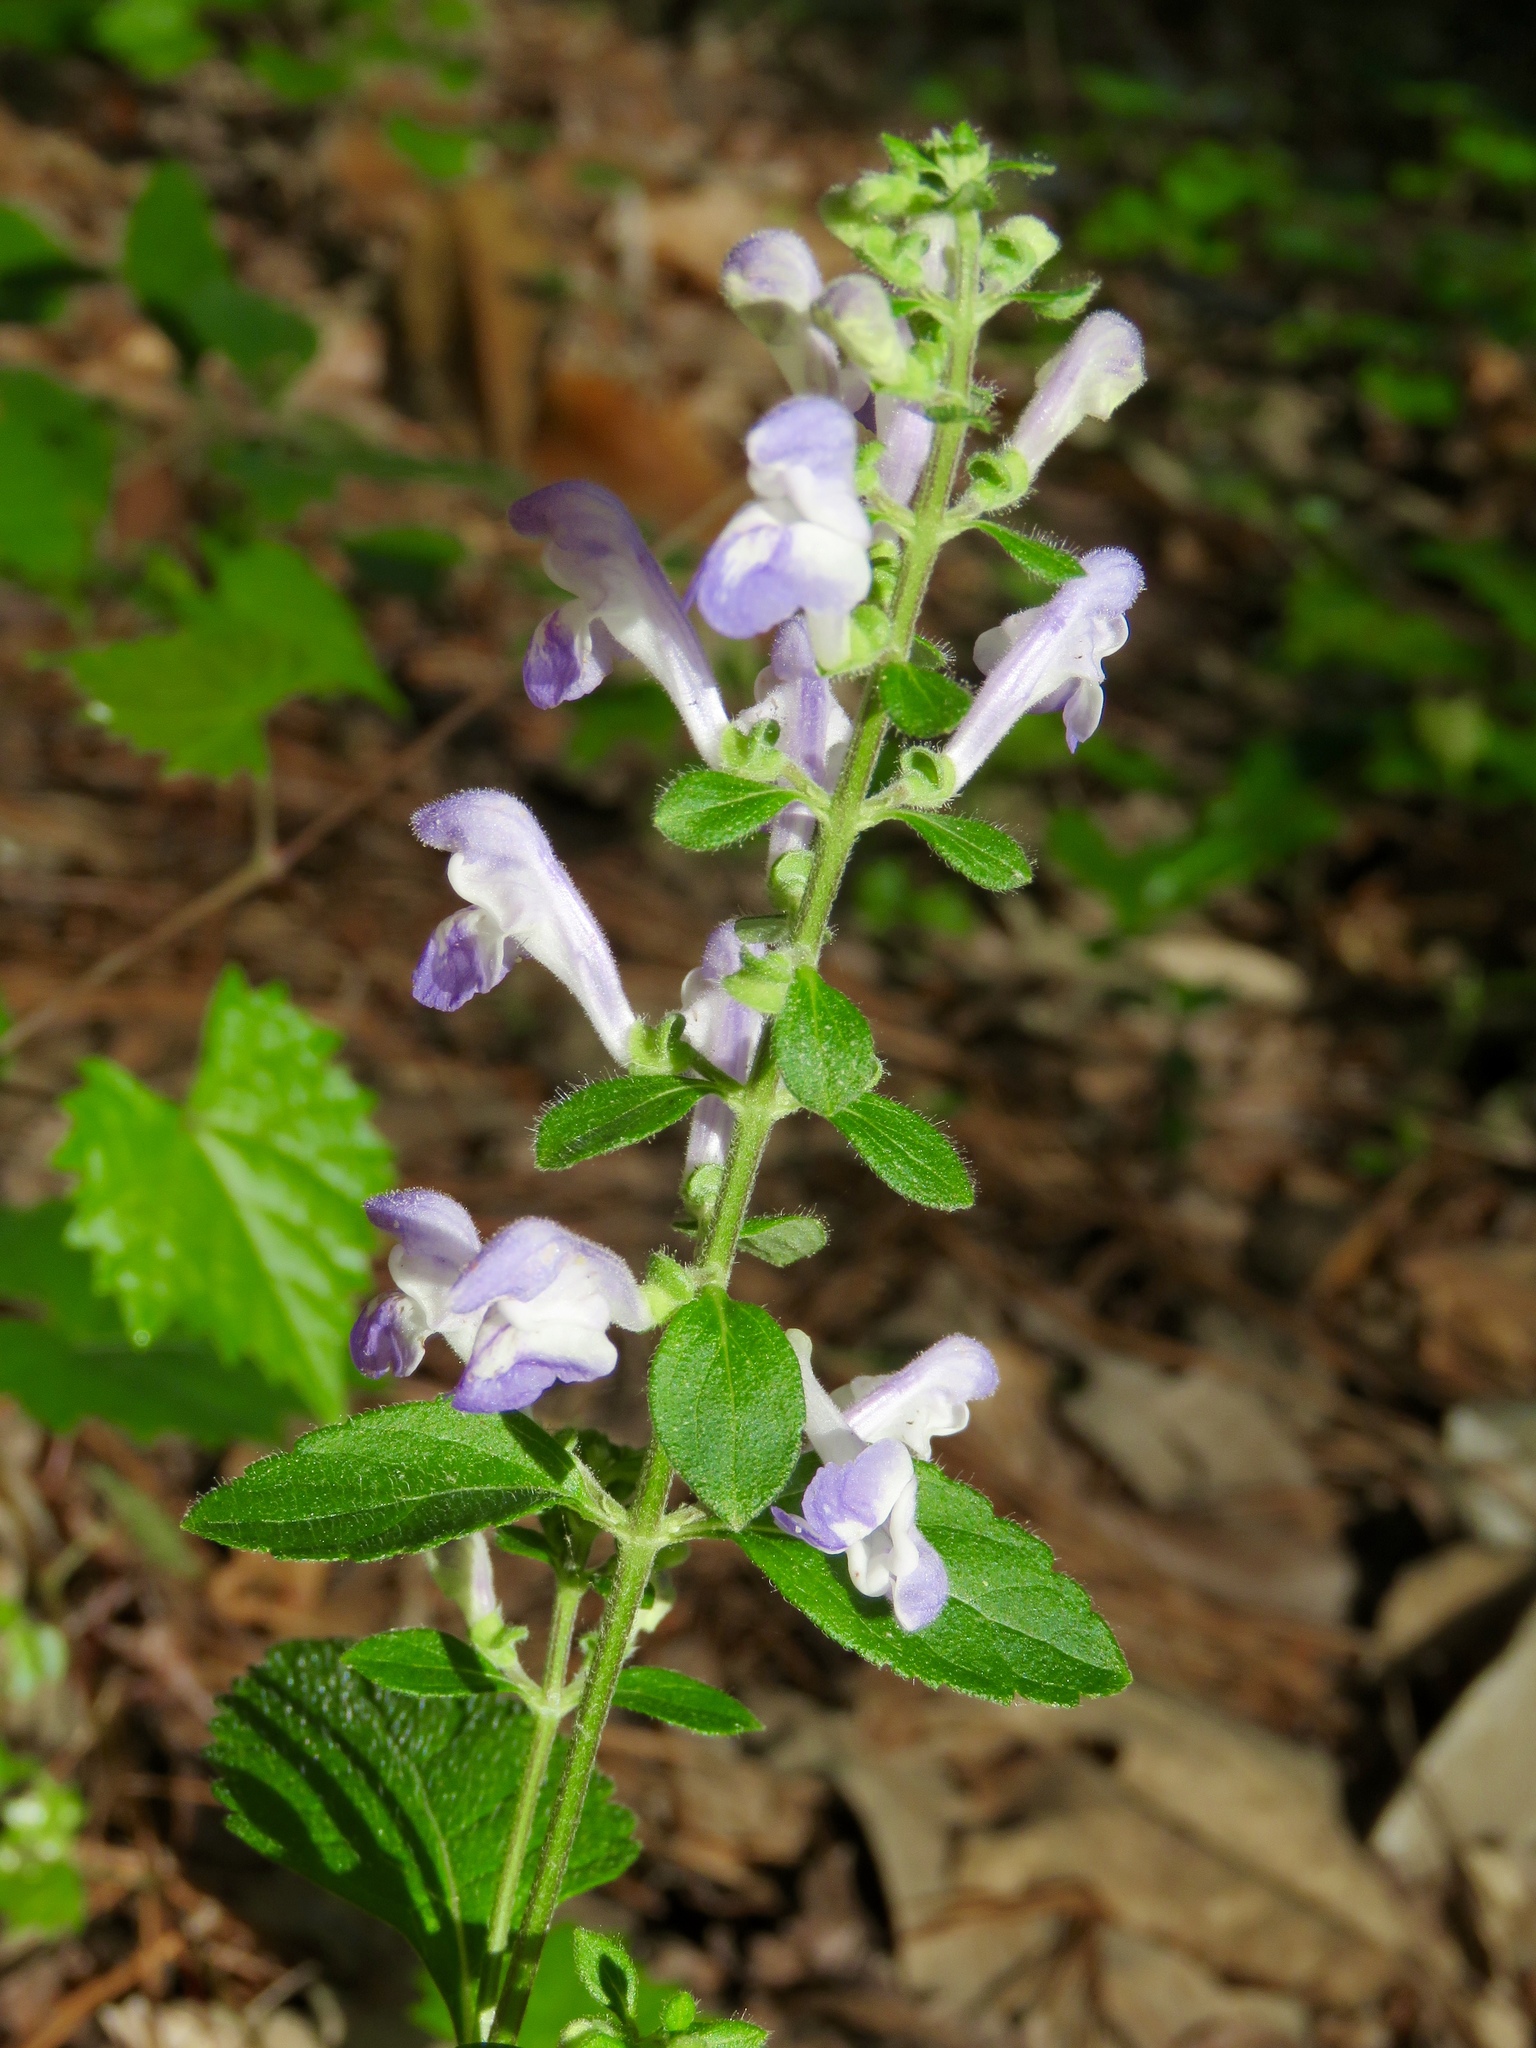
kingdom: Plantae
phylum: Tracheophyta
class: Magnoliopsida
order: Lamiales
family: Lamiaceae
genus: Scutellaria
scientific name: Scutellaria elliptica
